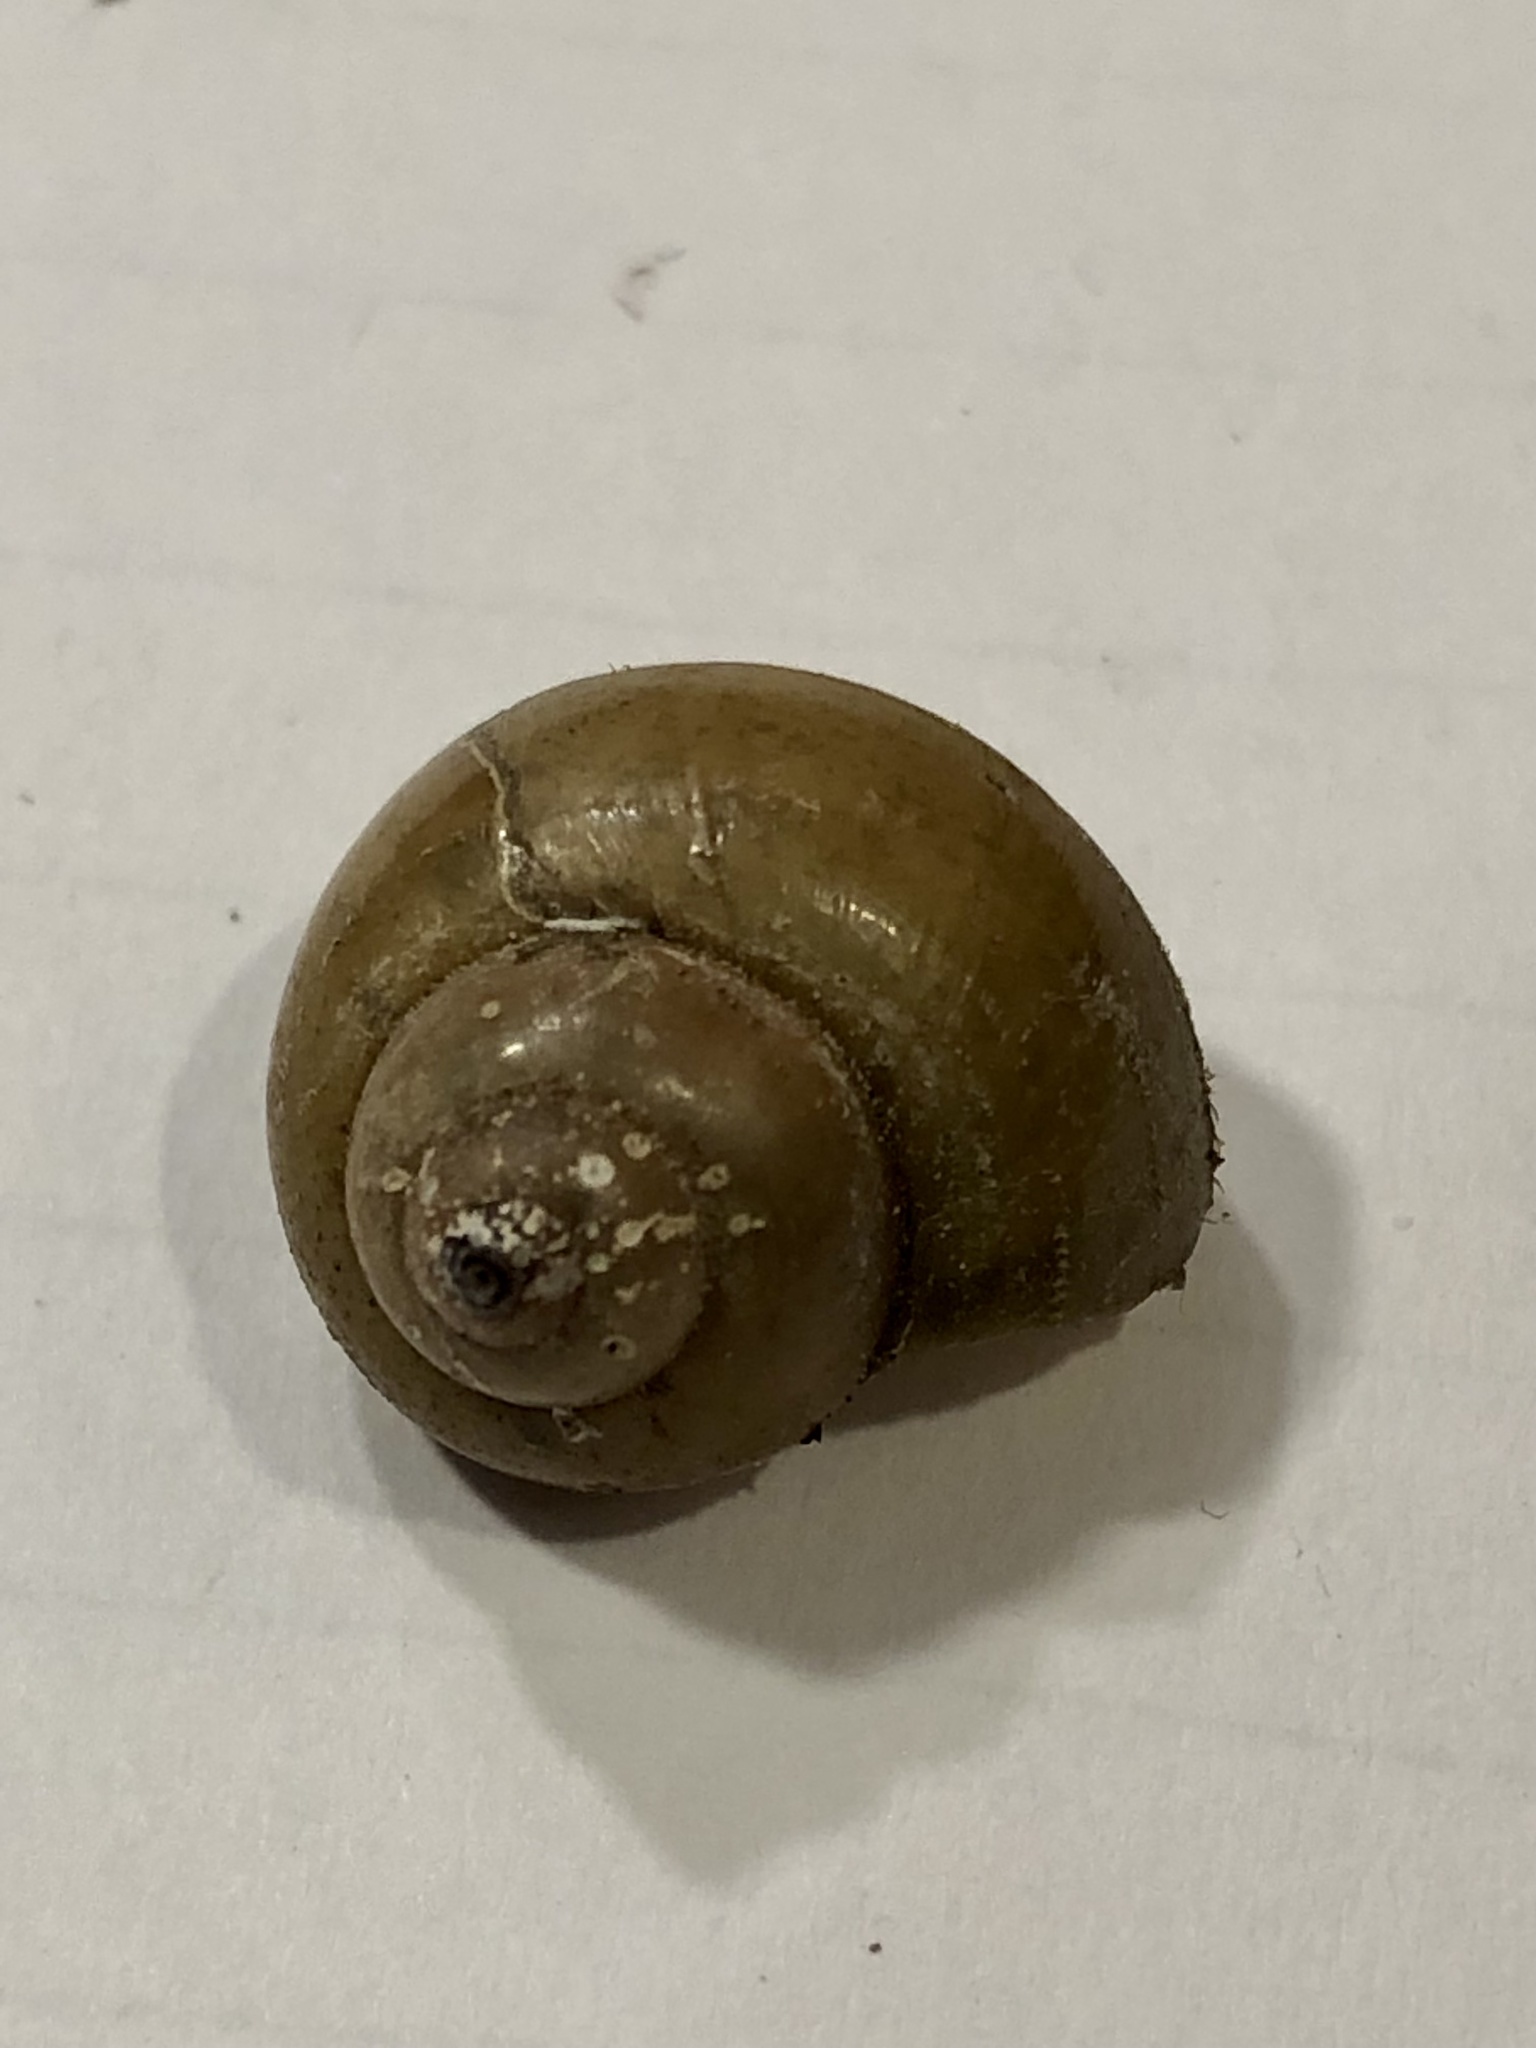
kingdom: Animalia
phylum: Mollusca
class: Gastropoda
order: Architaenioglossa
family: Viviparidae
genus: Cipangopaludina
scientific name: Cipangopaludina chinensis
